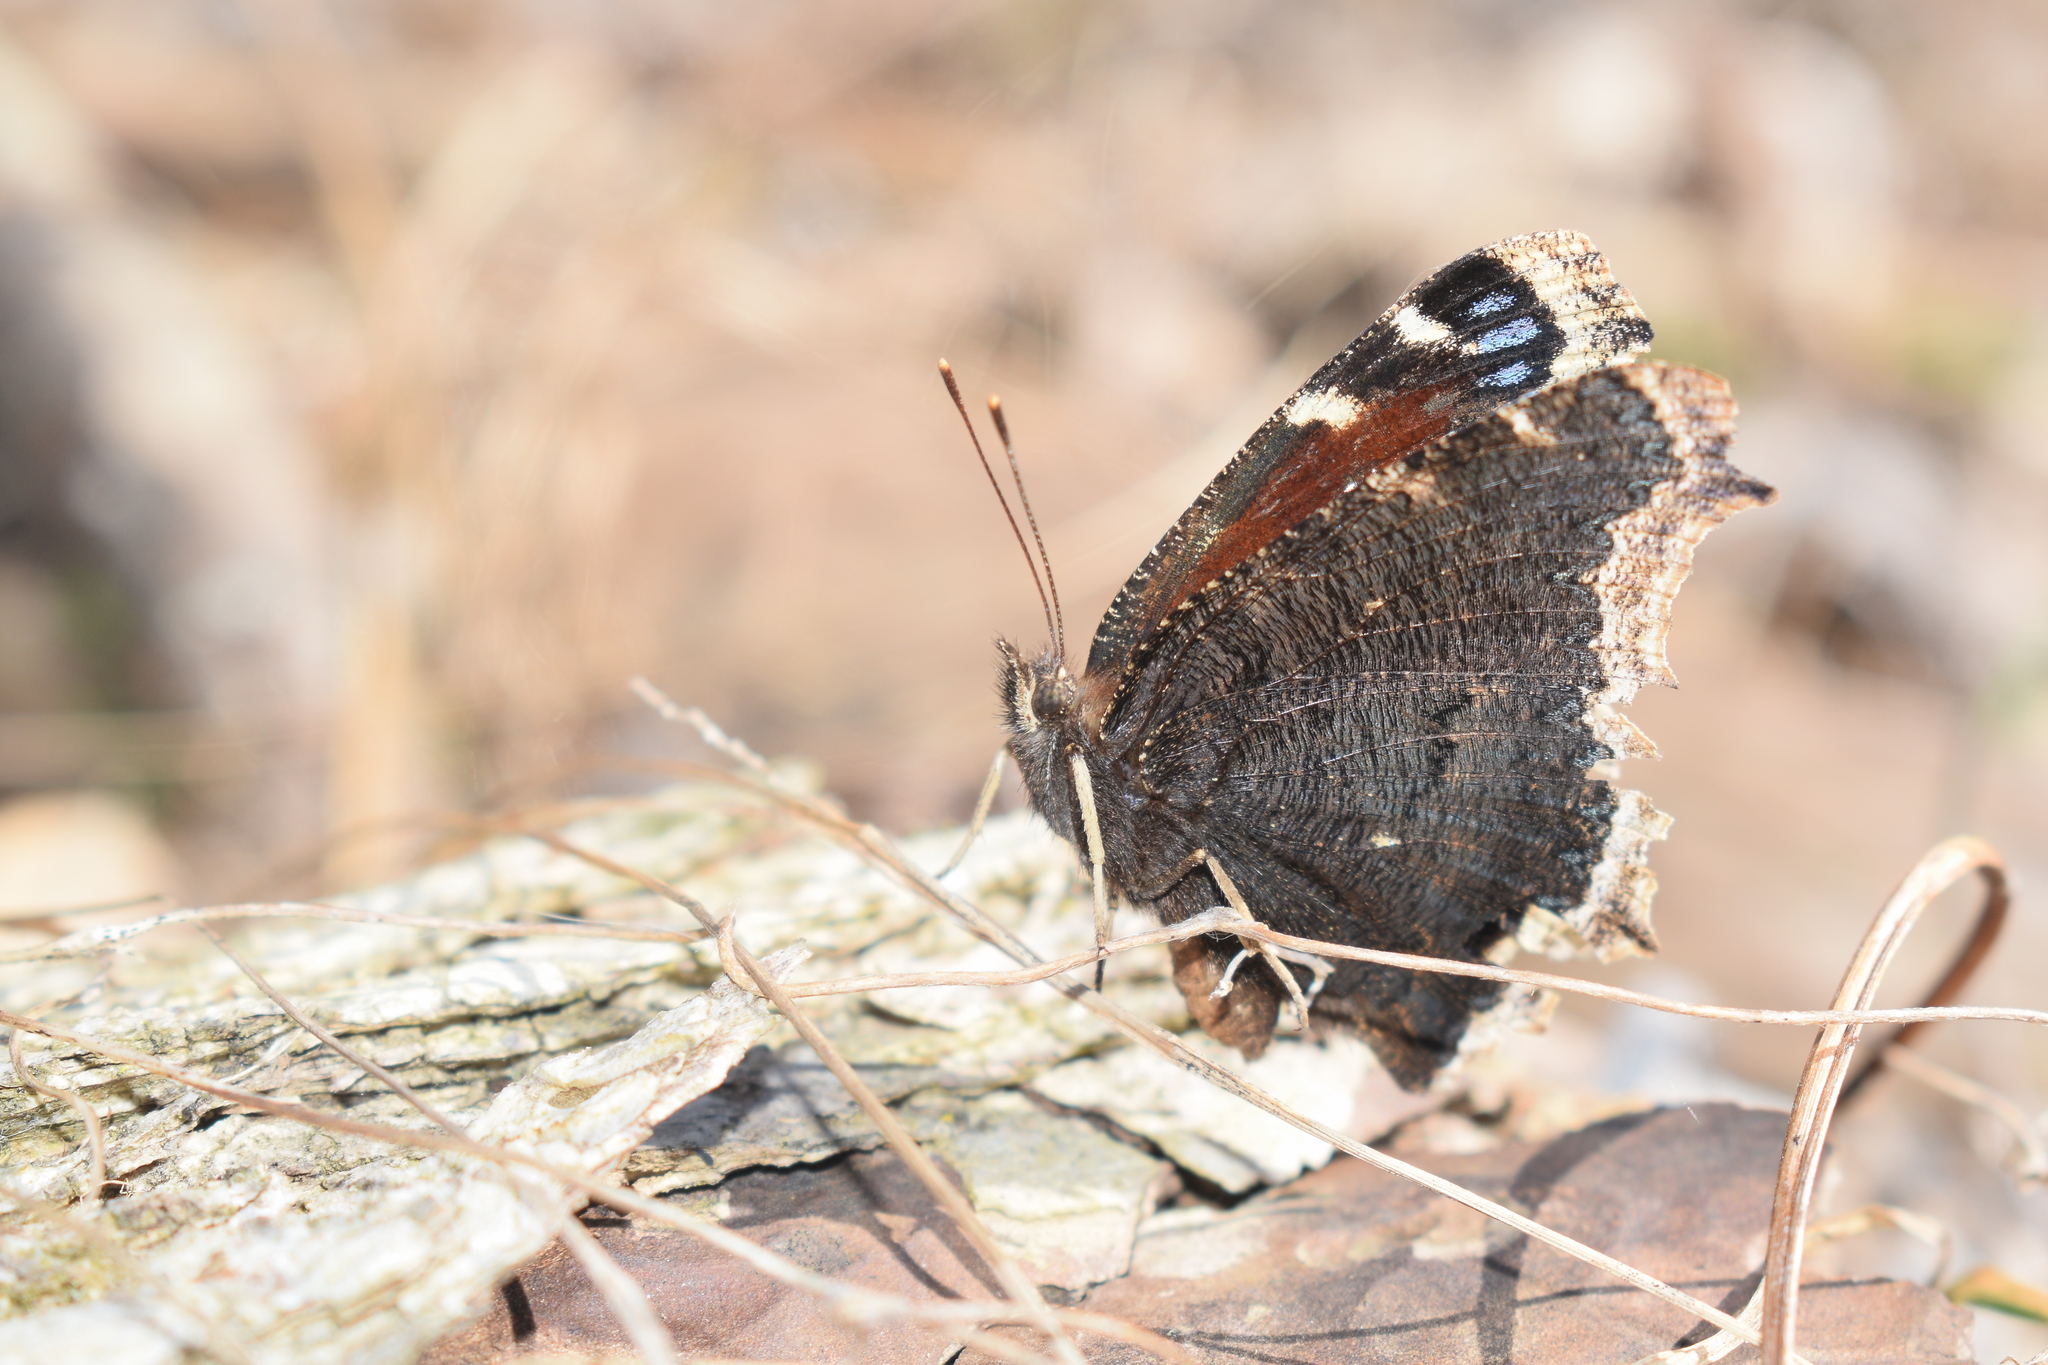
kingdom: Animalia
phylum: Arthropoda
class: Insecta
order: Lepidoptera
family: Nymphalidae
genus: Nymphalis
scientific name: Nymphalis antiopa
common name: Camberwell beauty
